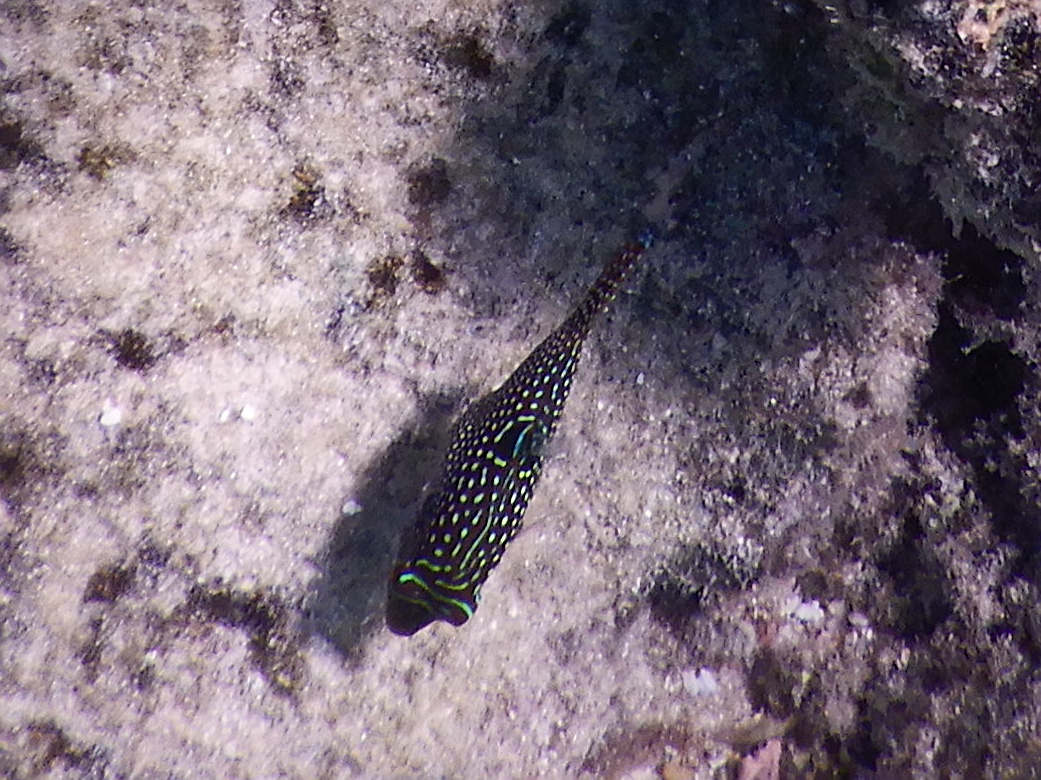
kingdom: Animalia
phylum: Chordata
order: Tetraodontiformes
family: Tetraodontidae
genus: Canthigaster
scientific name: Canthigaster solandri
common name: False-eye toby
